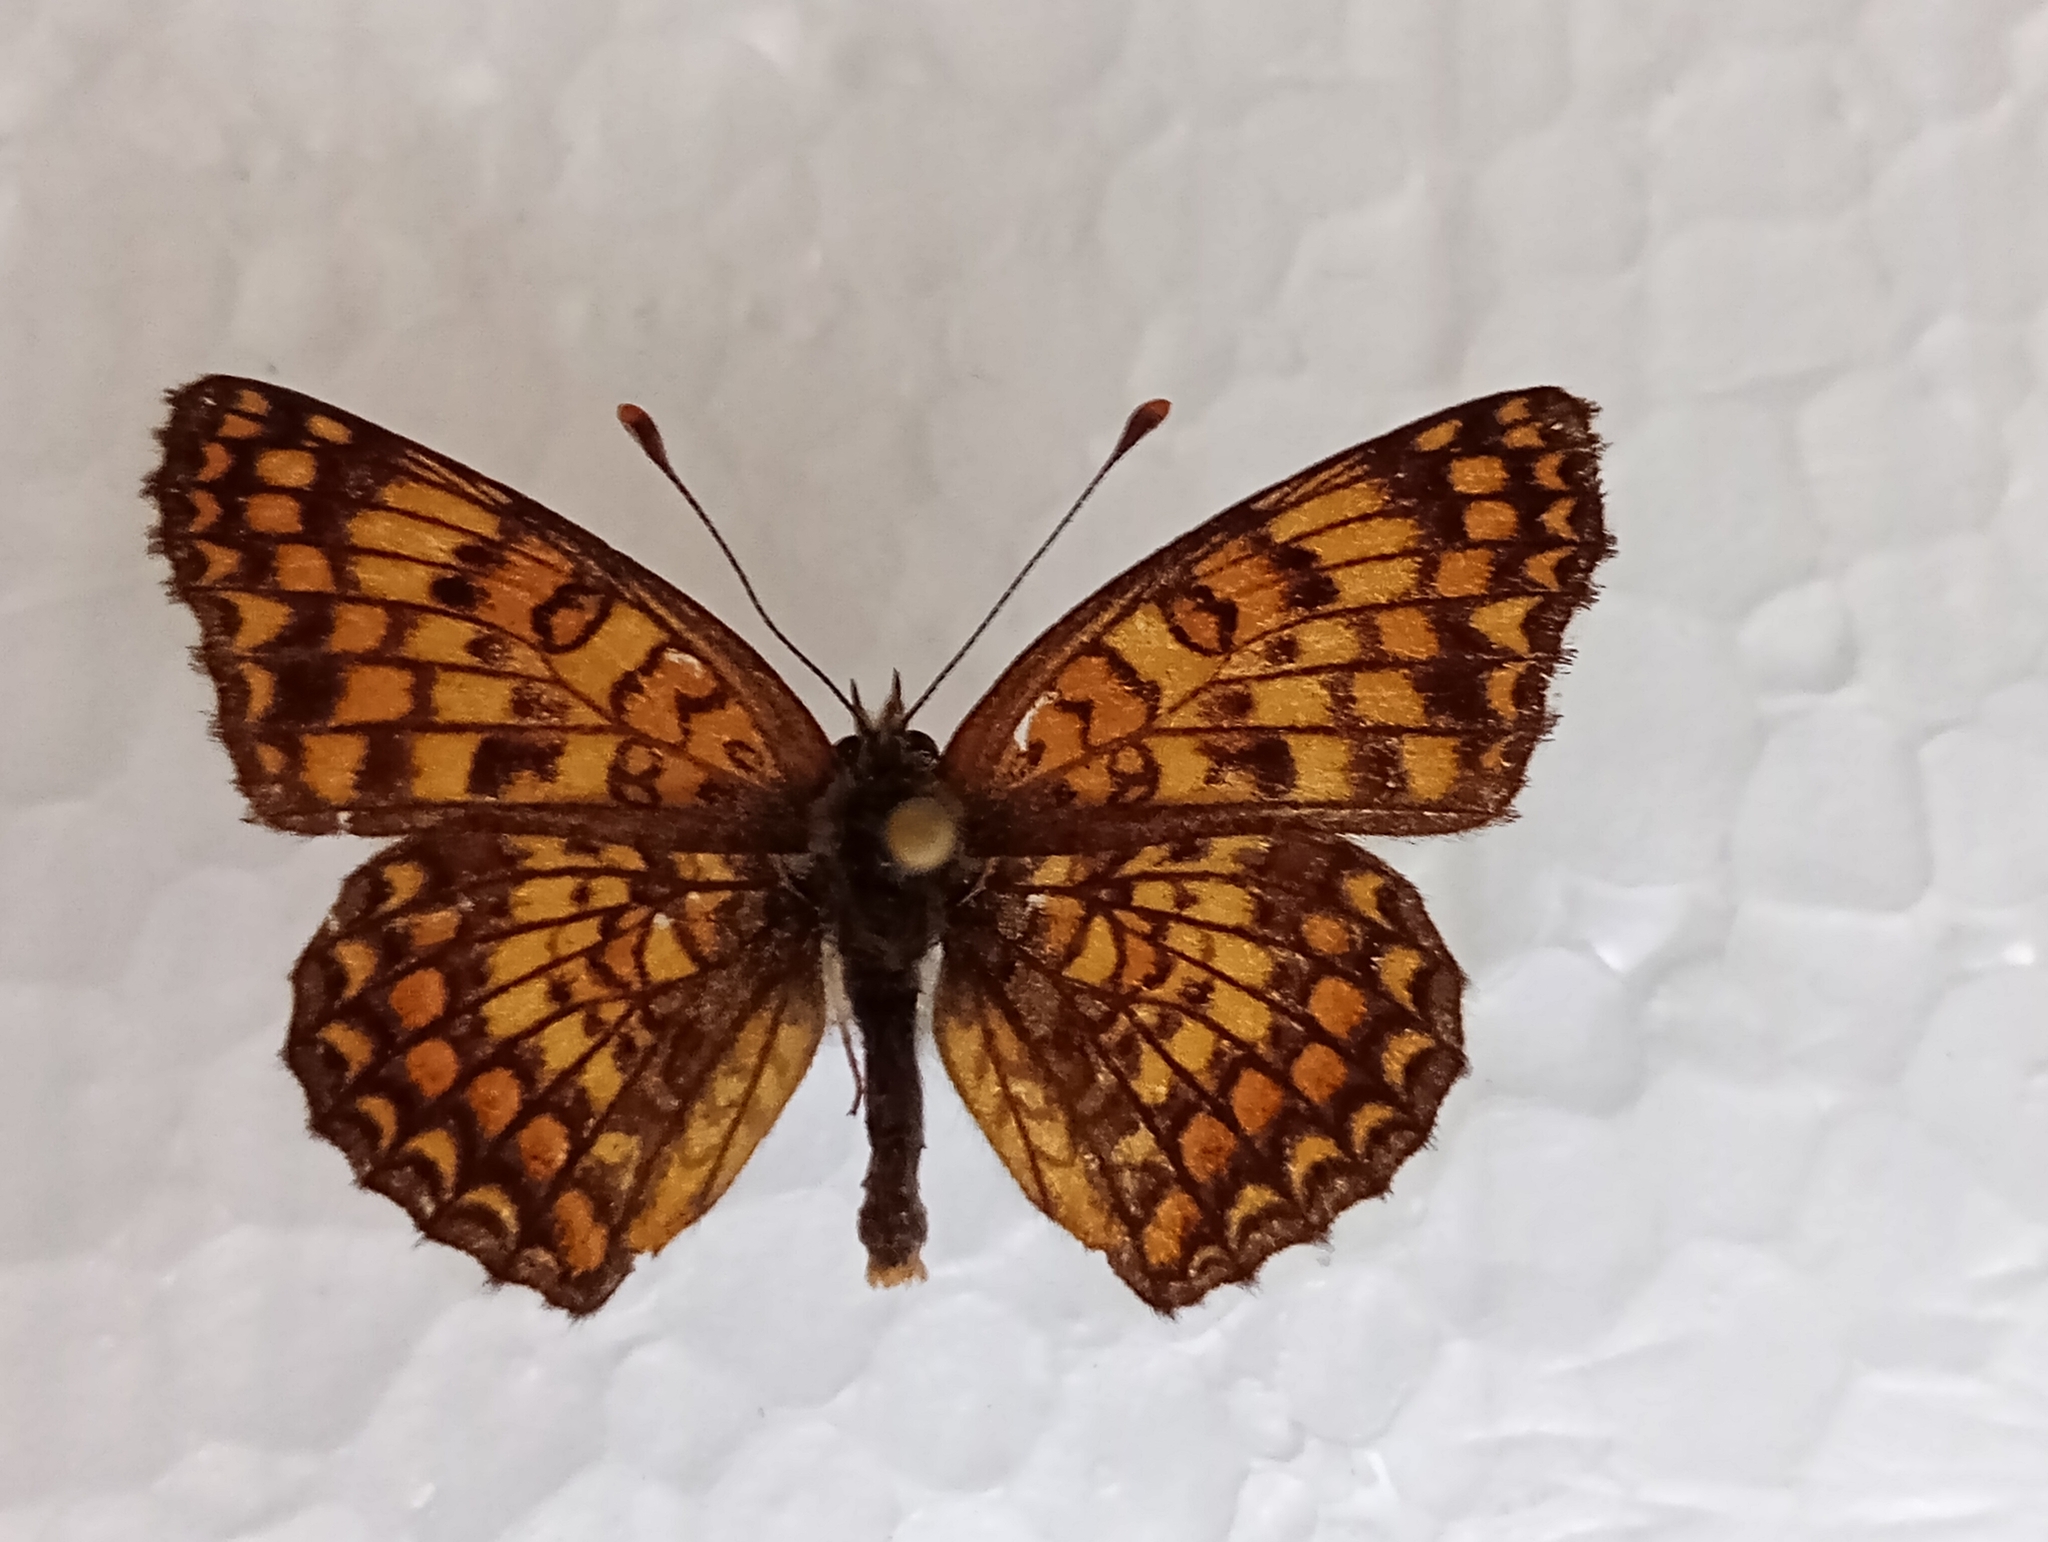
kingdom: Animalia
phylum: Arthropoda
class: Insecta
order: Lepidoptera
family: Nymphalidae
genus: Melitaea
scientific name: Melitaea phoebe
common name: Knapweed fritillary
